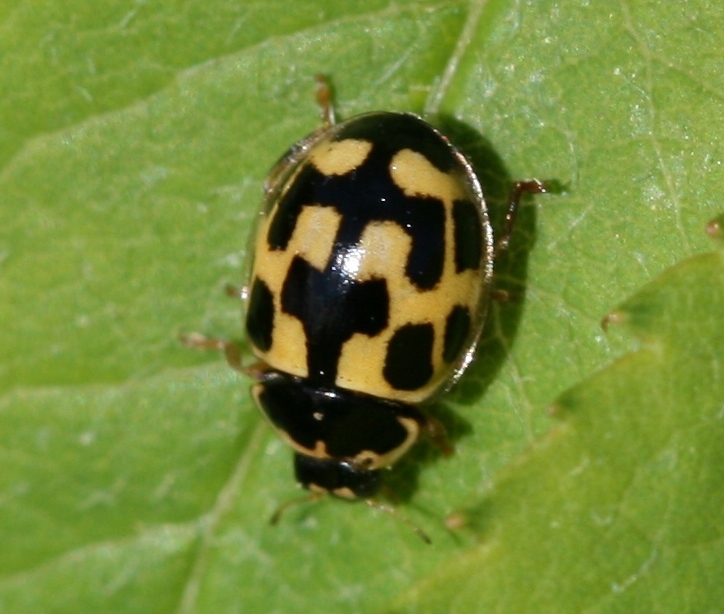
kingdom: Animalia
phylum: Arthropoda
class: Insecta
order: Coleoptera
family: Coccinellidae
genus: Propylaea
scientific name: Propylaea quatuordecimpunctata
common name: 14-spotted ladybird beetle
